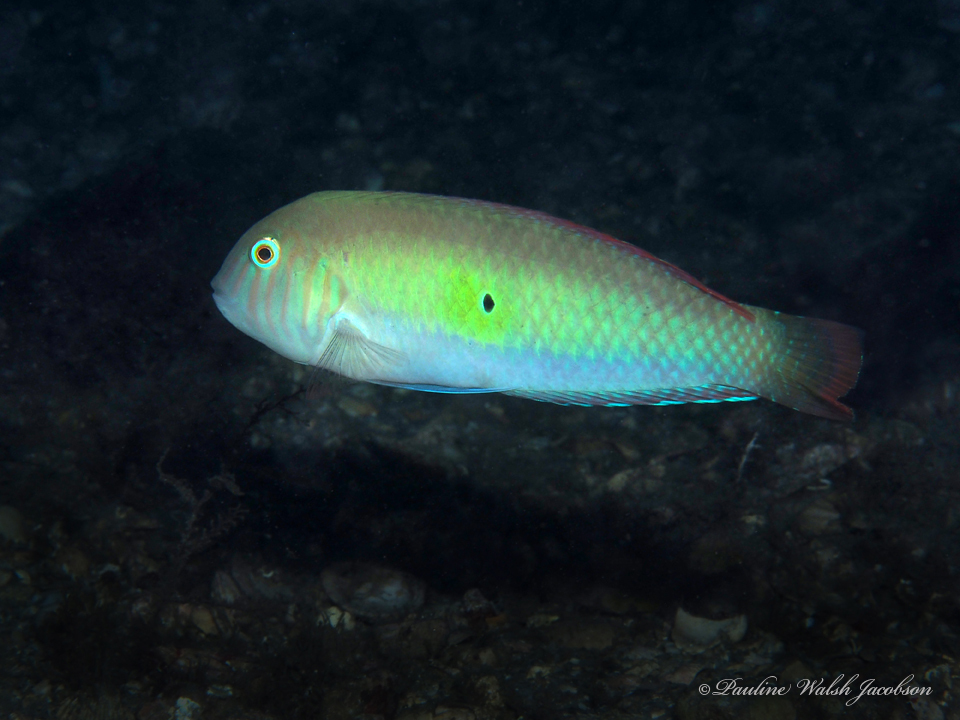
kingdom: Animalia
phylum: Chordata
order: Perciformes
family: Labridae
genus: Xyrichtys
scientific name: Xyrichtys splendens
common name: Green razorfish
